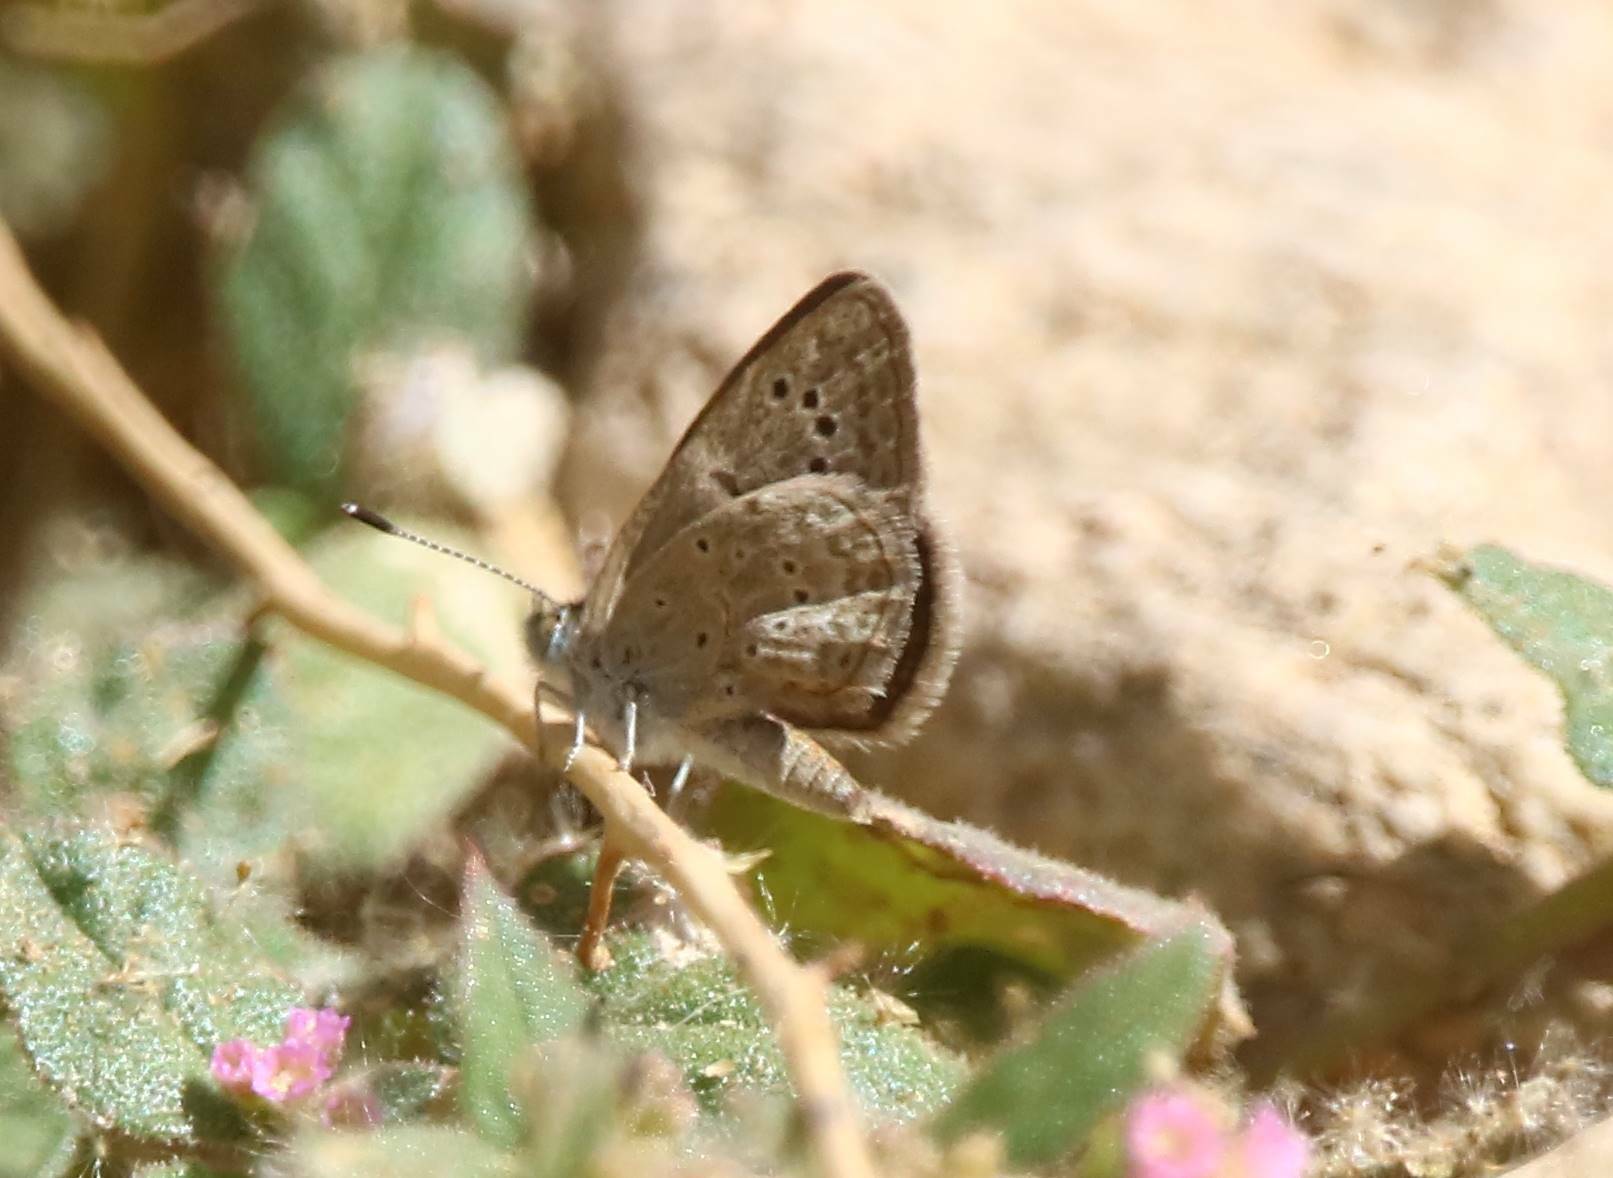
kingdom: Animalia
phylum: Arthropoda
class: Insecta
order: Lepidoptera
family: Lycaenidae
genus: Zizeeria
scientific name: Zizeeria knysna
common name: African grass blue
